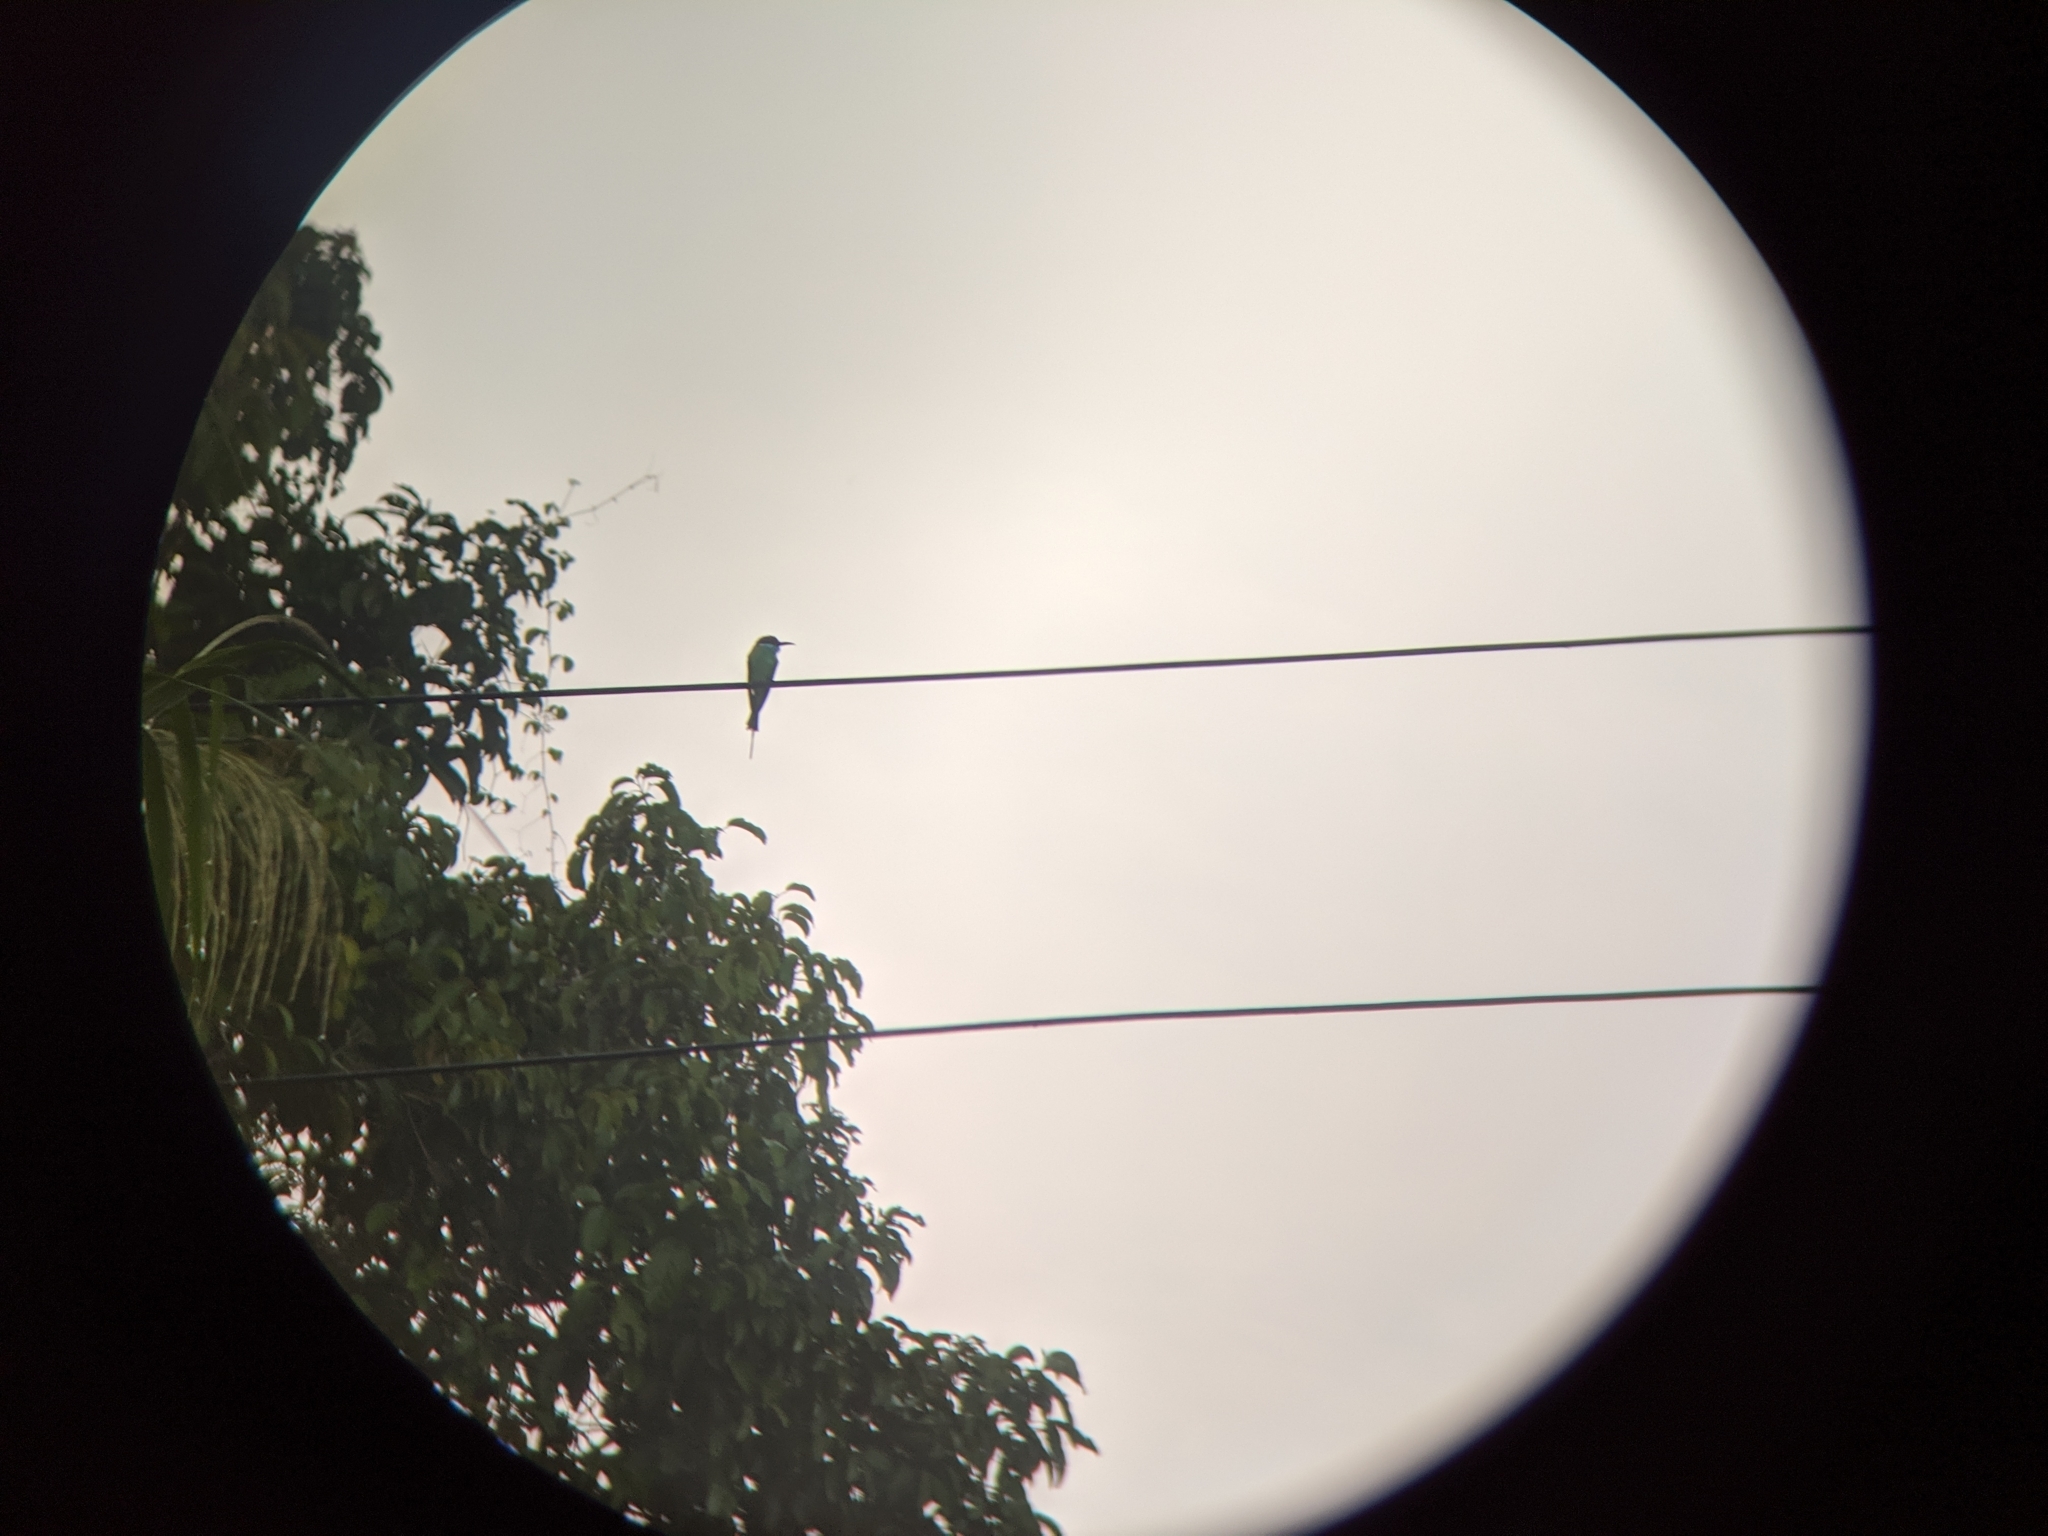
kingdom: Animalia
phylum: Chordata
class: Aves
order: Coraciiformes
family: Meropidae
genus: Merops
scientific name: Merops viridis
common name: Blue-throated bee-eater
